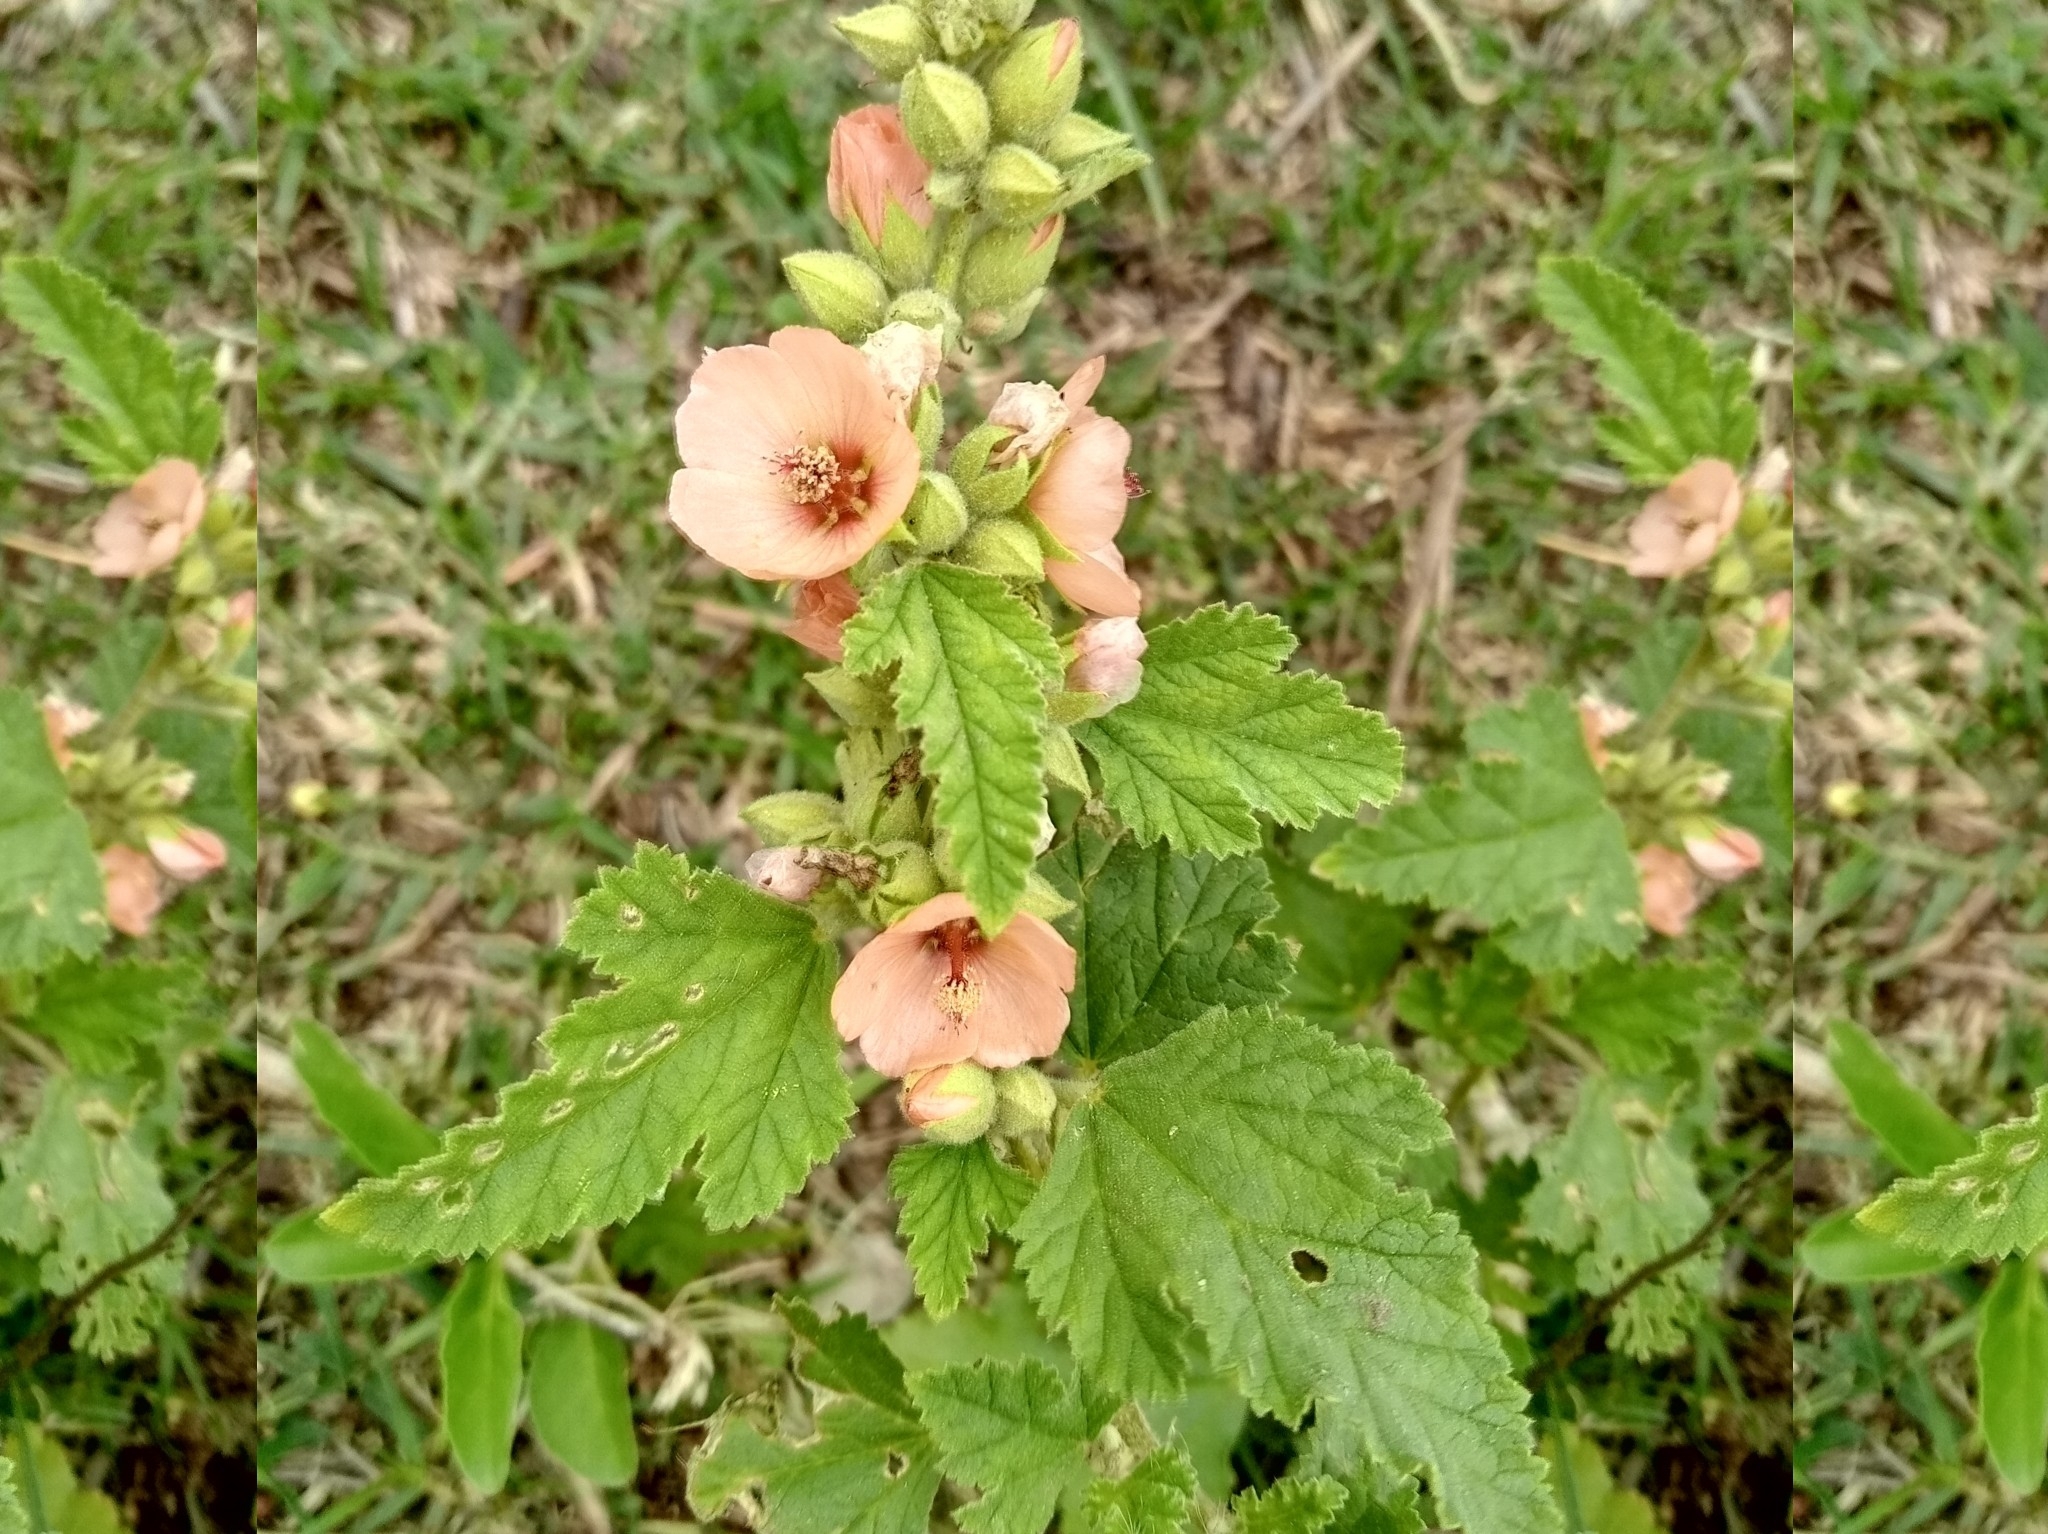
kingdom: Plantae
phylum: Tracheophyta
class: Magnoliopsida
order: Malvales
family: Malvaceae
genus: Sphaeralcea
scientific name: Sphaeralcea bonariensis
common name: Latin globemallow
